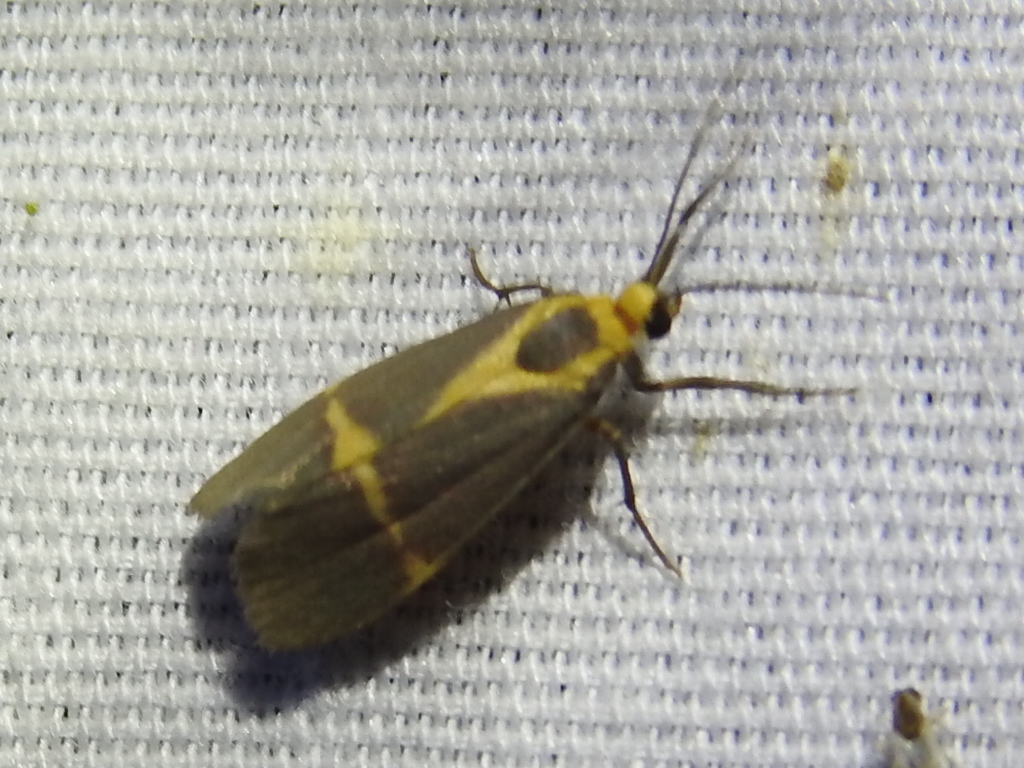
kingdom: Animalia
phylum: Arthropoda
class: Insecta
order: Lepidoptera
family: Erebidae
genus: Cisthene
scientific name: Cisthene tenuifascia
